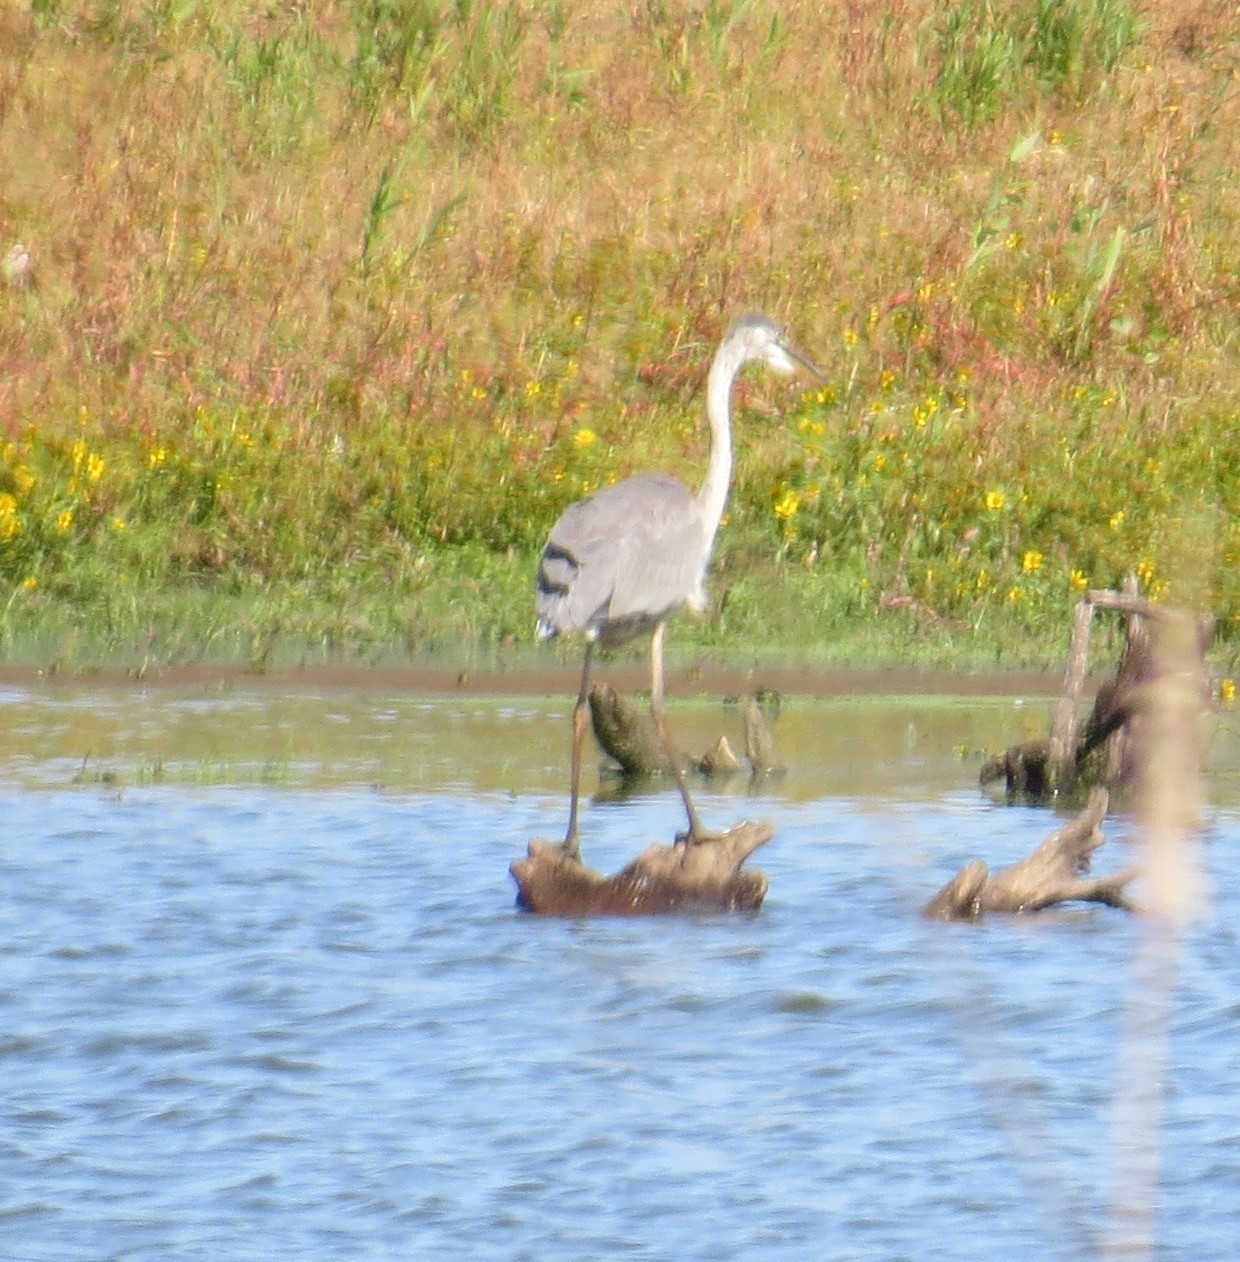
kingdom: Animalia
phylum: Chordata
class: Aves
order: Pelecaniformes
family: Ardeidae
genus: Ardea
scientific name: Ardea herodias
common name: Great blue heron
